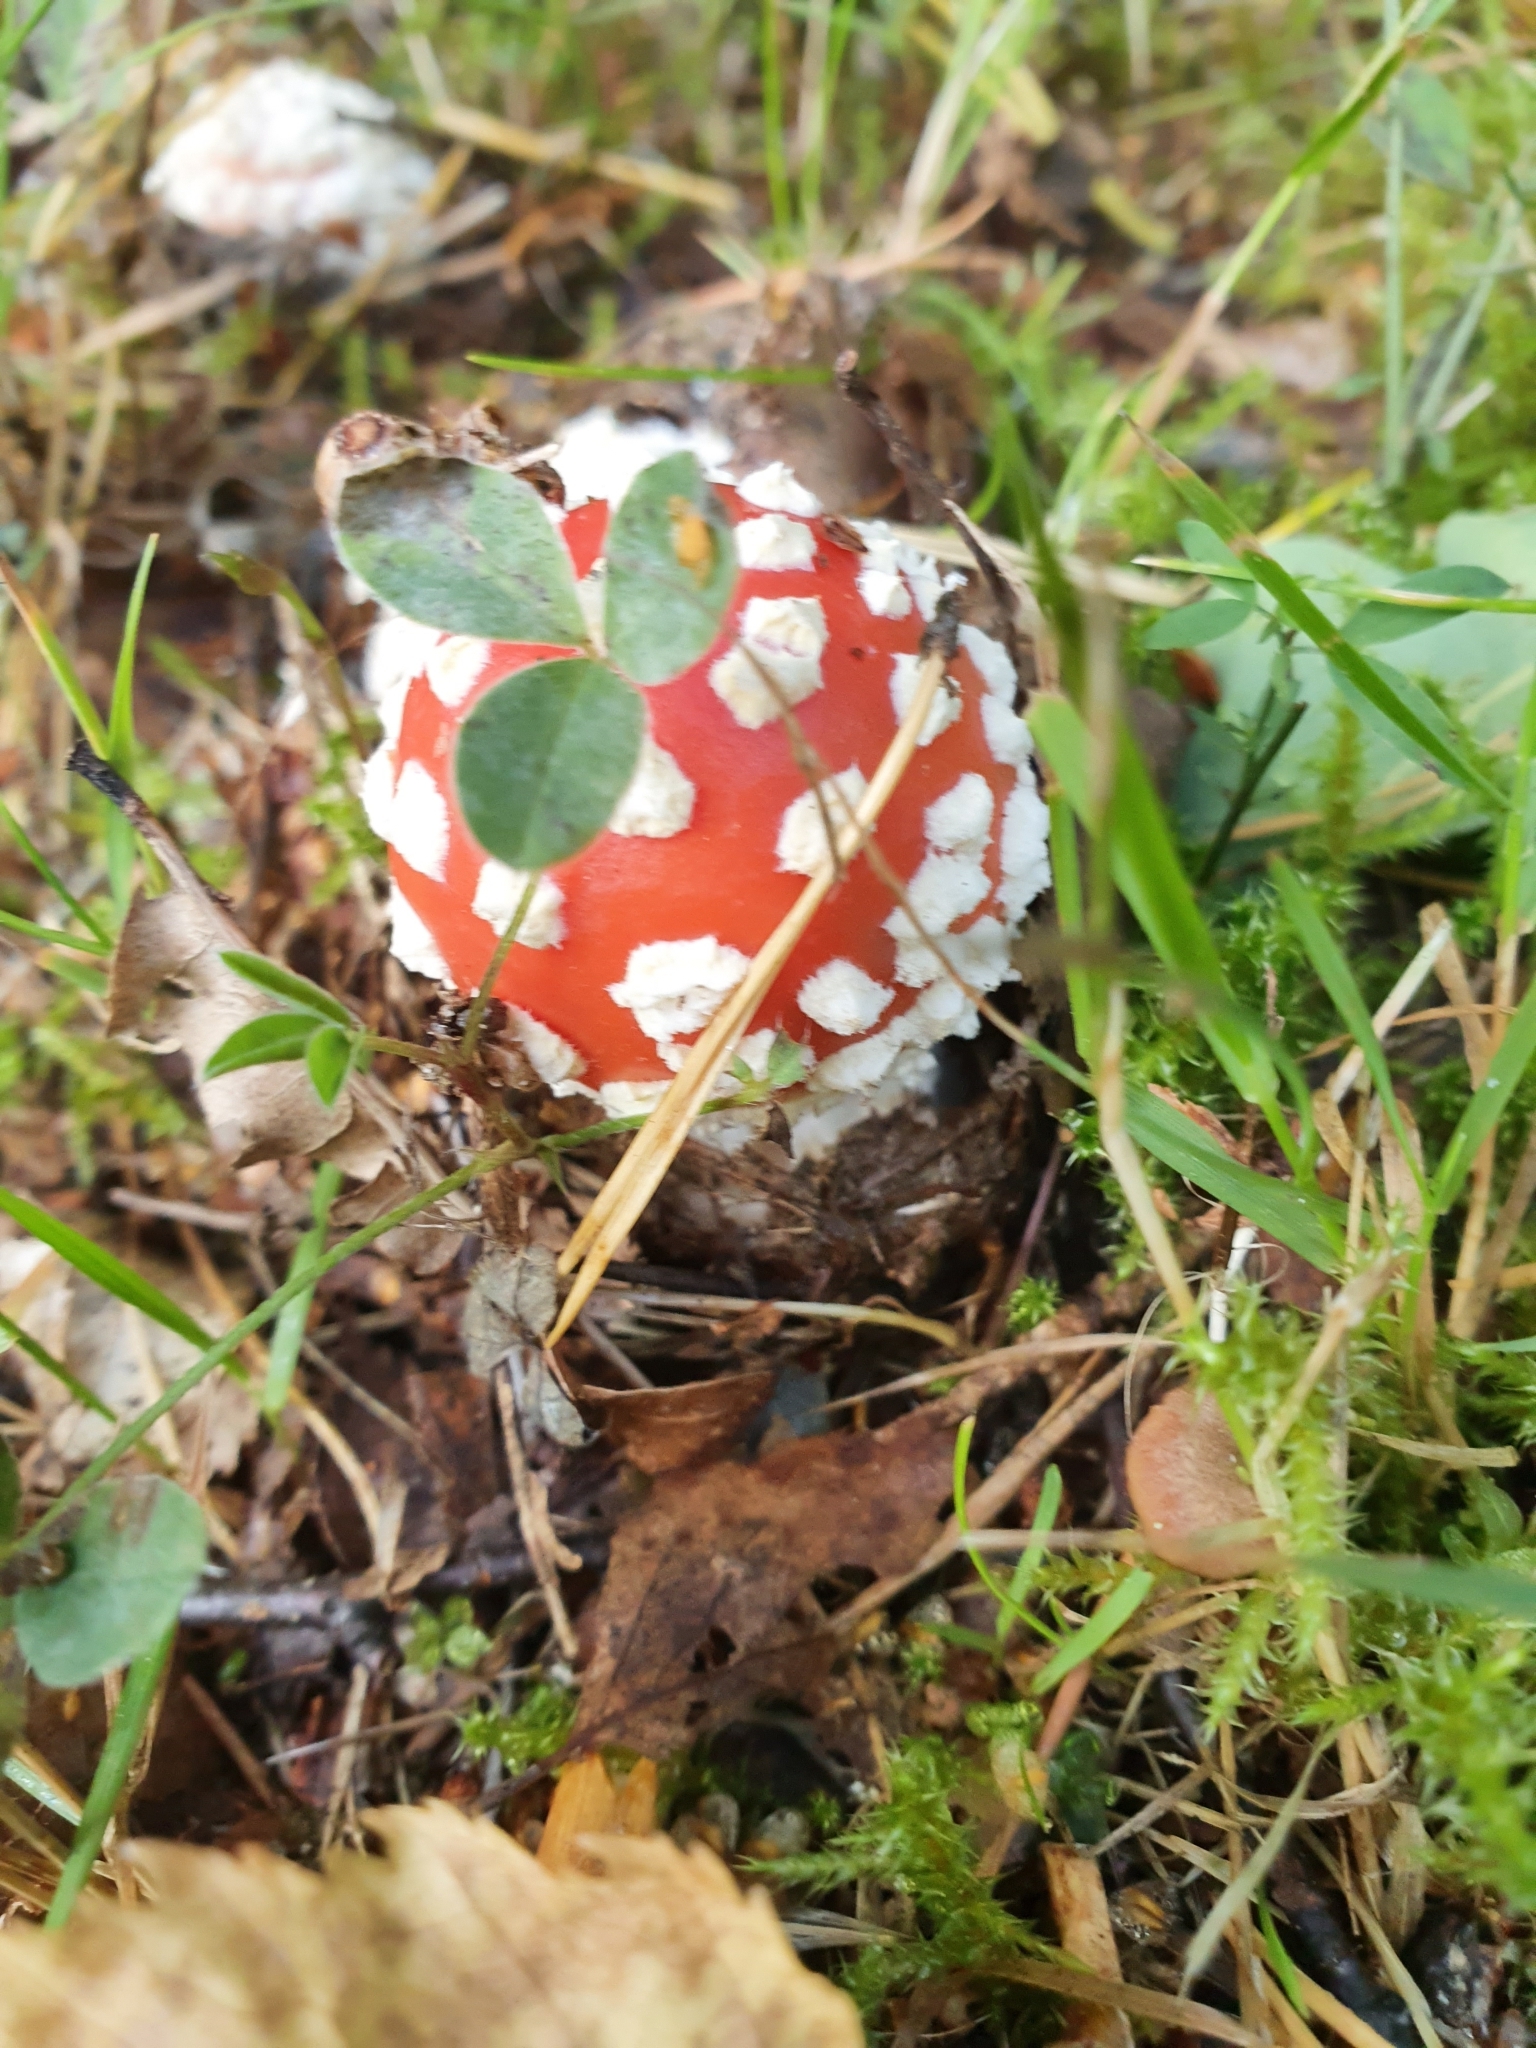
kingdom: Fungi
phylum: Basidiomycota
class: Agaricomycetes
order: Agaricales
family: Amanitaceae
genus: Amanita
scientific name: Amanita muscaria
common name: Fly agaric
